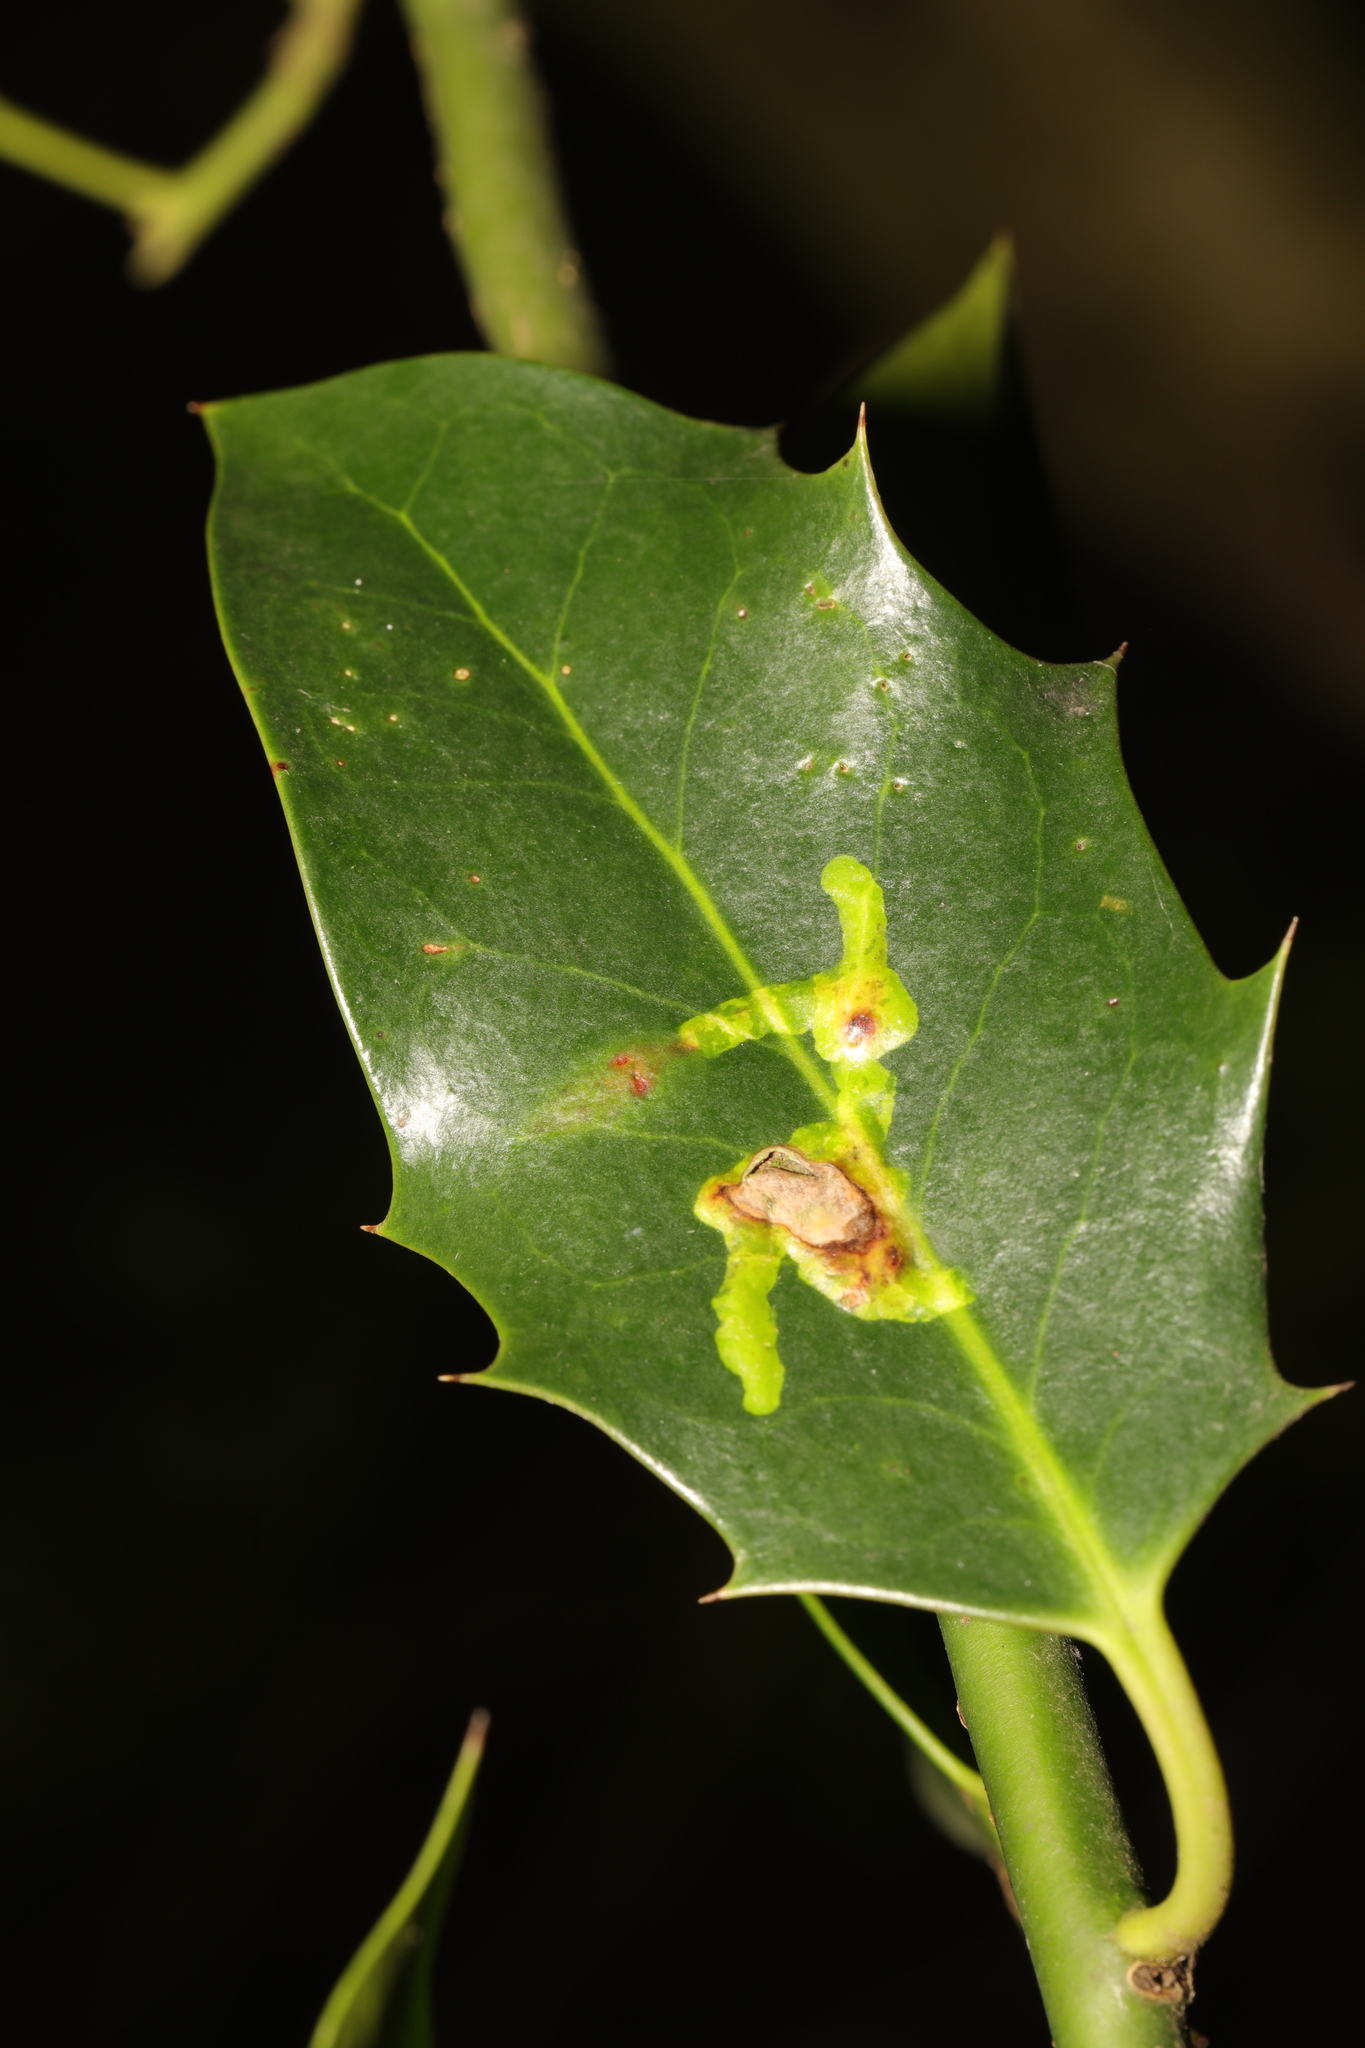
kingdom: Animalia
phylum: Arthropoda
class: Insecta
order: Diptera
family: Agromyzidae
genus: Phytomyza
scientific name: Phytomyza ilicis
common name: Holly leafminer
